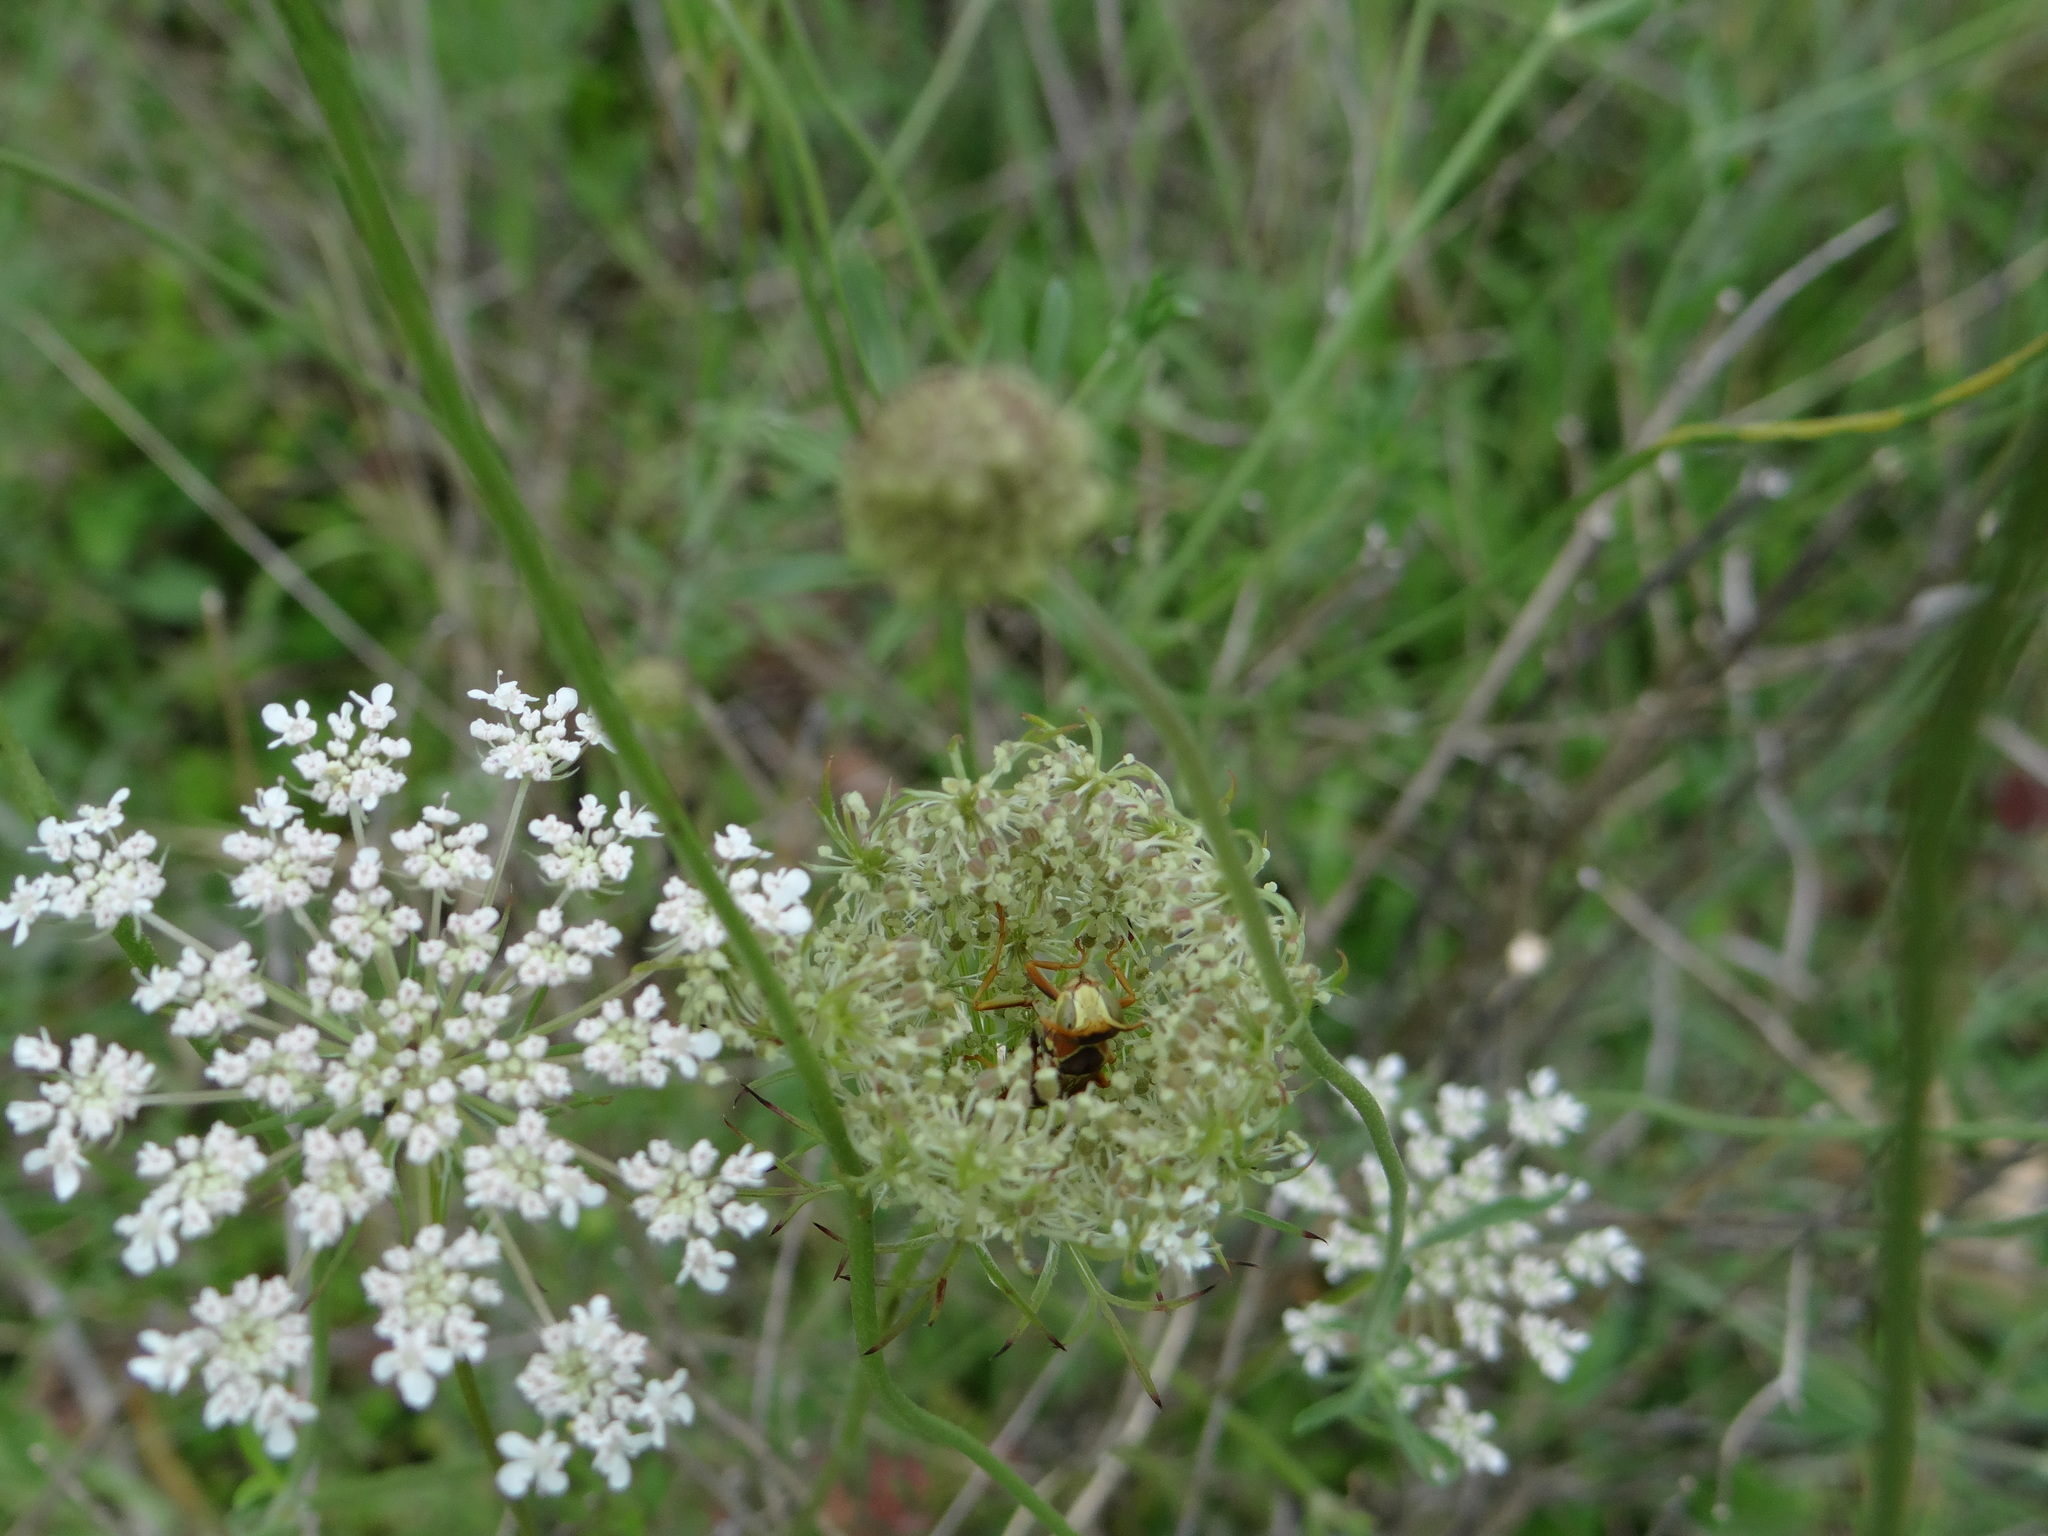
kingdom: Animalia
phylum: Arthropoda
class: Insecta
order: Hymenoptera
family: Eumenidae
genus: Polistes
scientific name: Polistes dorsalis
